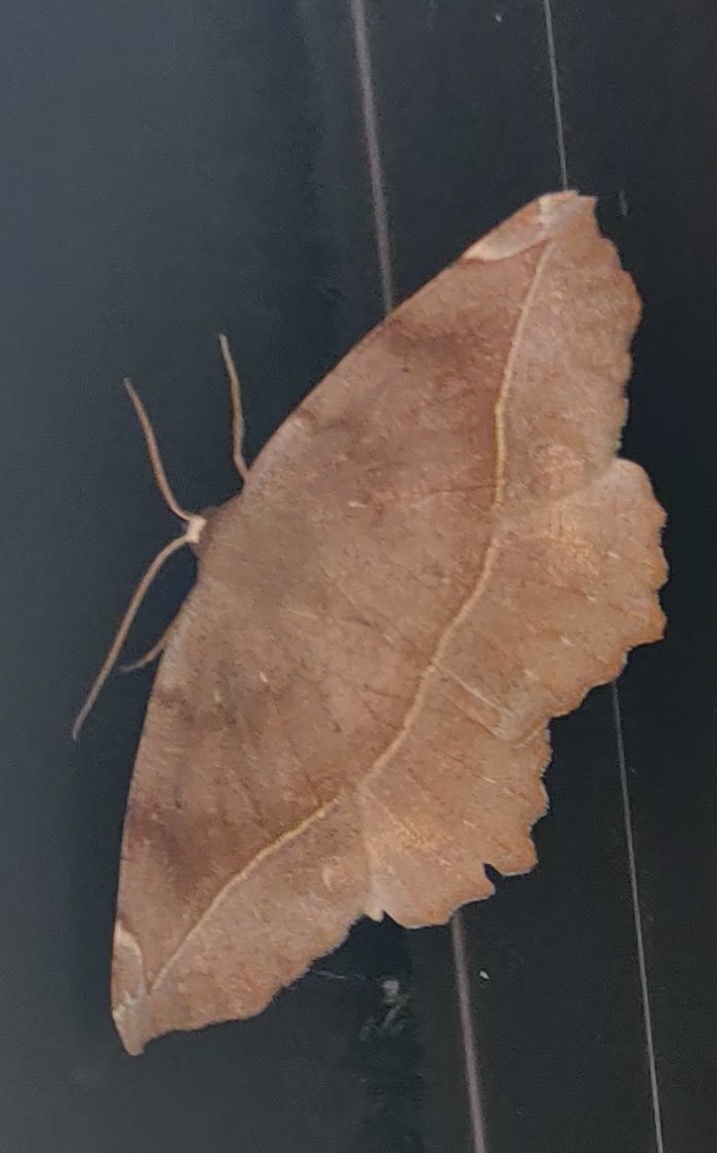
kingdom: Animalia
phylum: Arthropoda
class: Insecta
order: Lepidoptera
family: Geometridae
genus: Eutrapela
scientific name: Eutrapela clemataria
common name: Curved-toothed geometer
